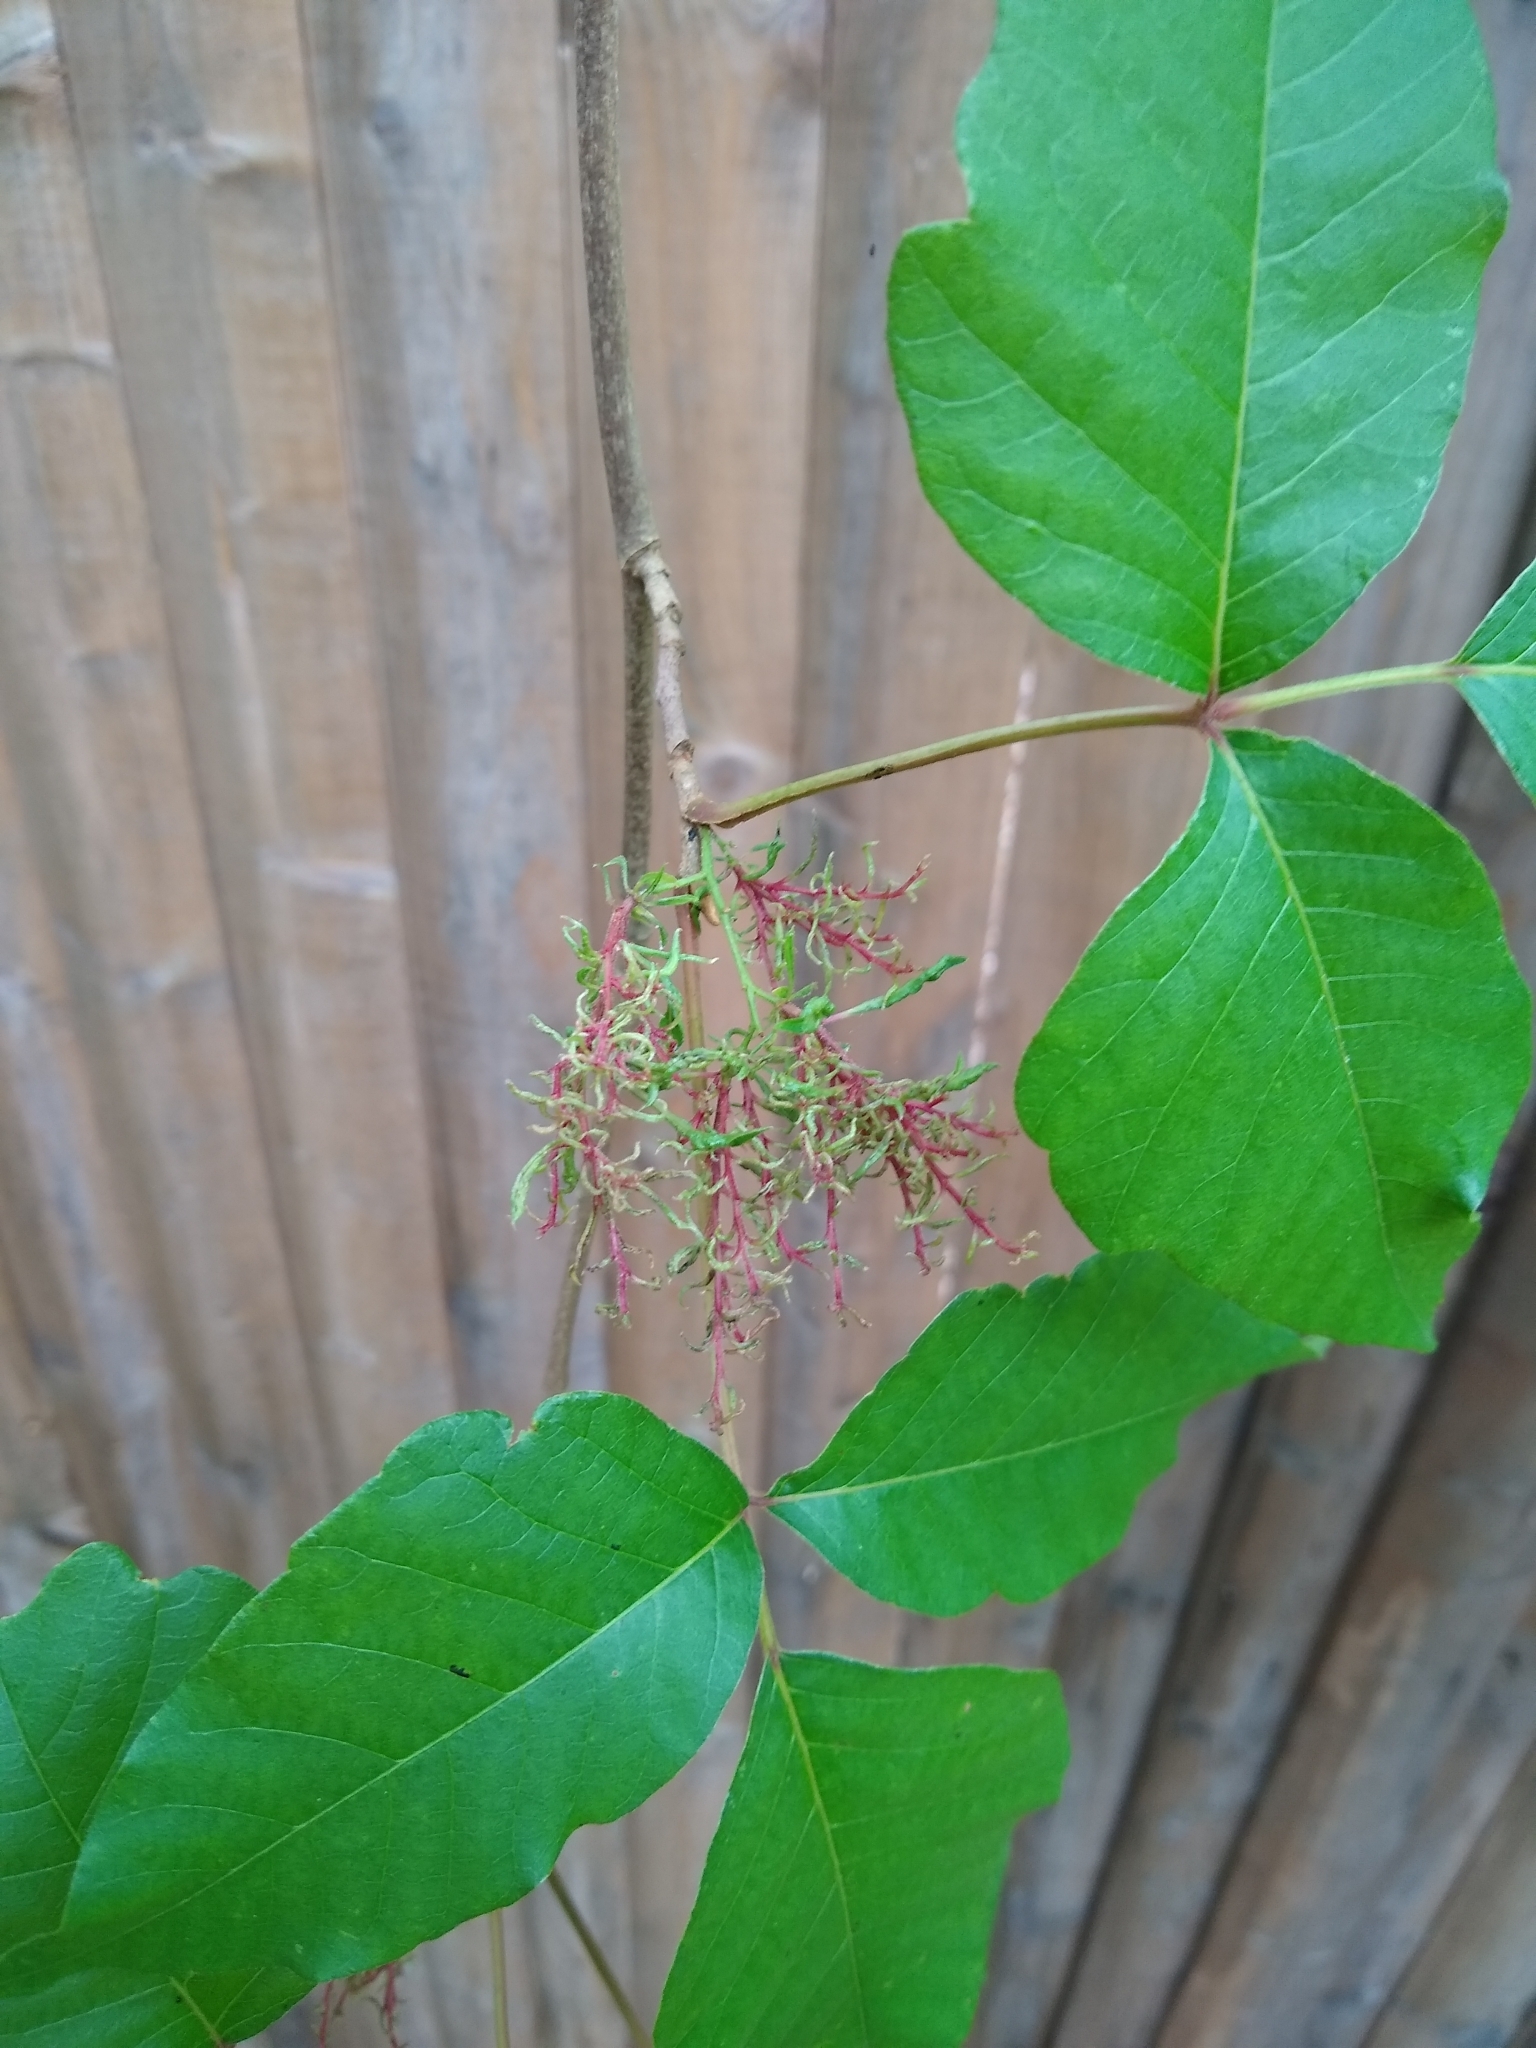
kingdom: Plantae
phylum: Tracheophyta
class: Magnoliopsida
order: Sapindales
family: Anacardiaceae
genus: Toxicodendron
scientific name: Toxicodendron radicans
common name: Poison ivy
